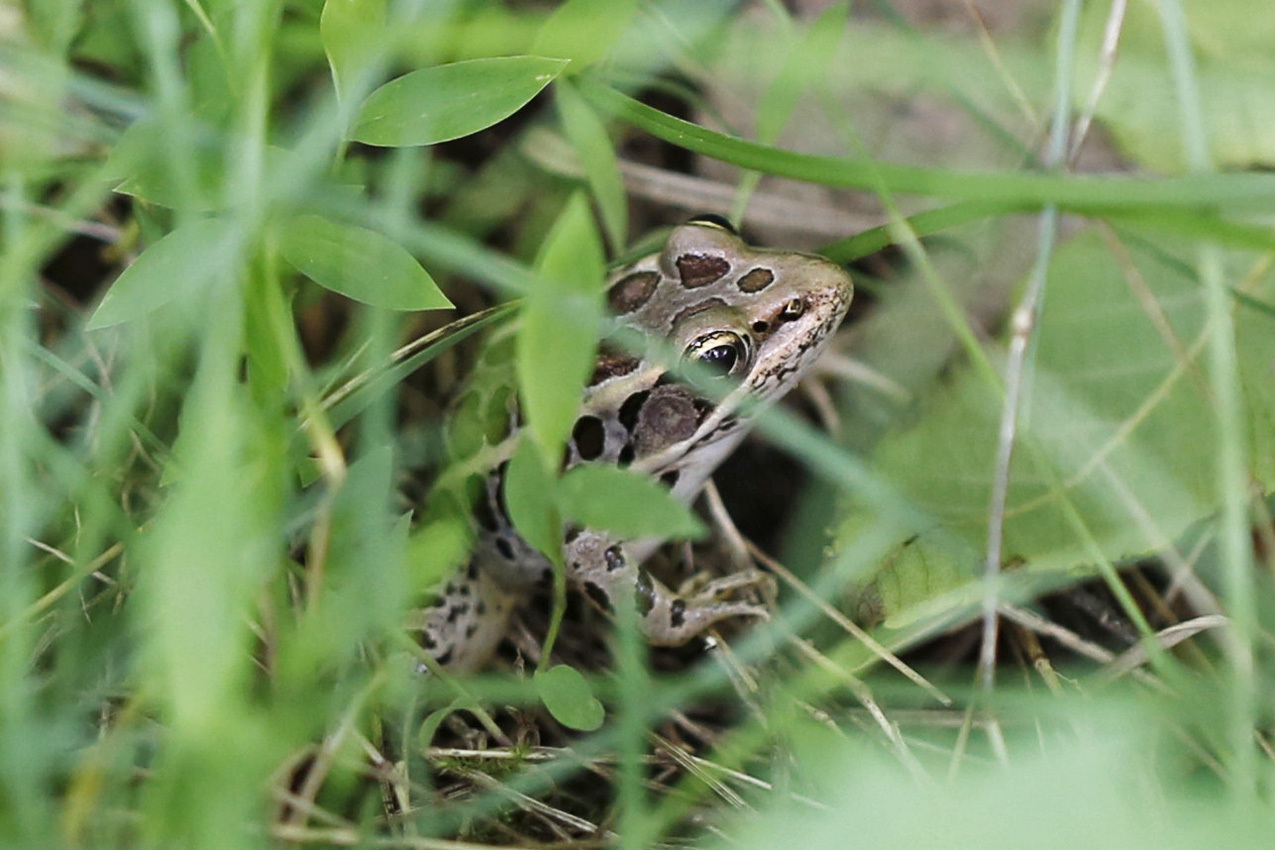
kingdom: Animalia
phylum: Chordata
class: Amphibia
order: Anura
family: Ranidae
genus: Lithobates
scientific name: Lithobates palustris
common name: Pickerel frog
